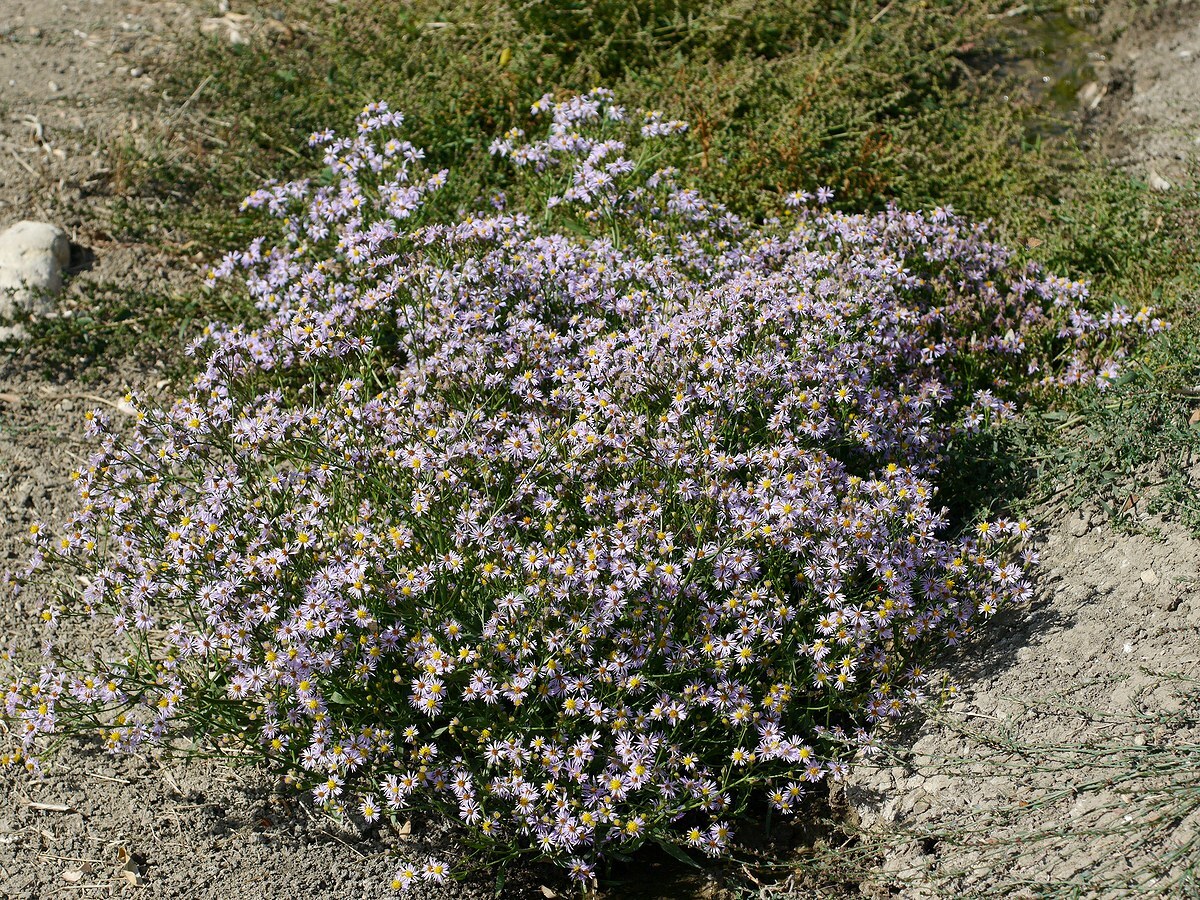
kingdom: Plantae
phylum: Tracheophyta
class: Magnoliopsida
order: Asterales
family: Asteraceae
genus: Tripolium
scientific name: Tripolium pannonicum
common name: Sea aster
